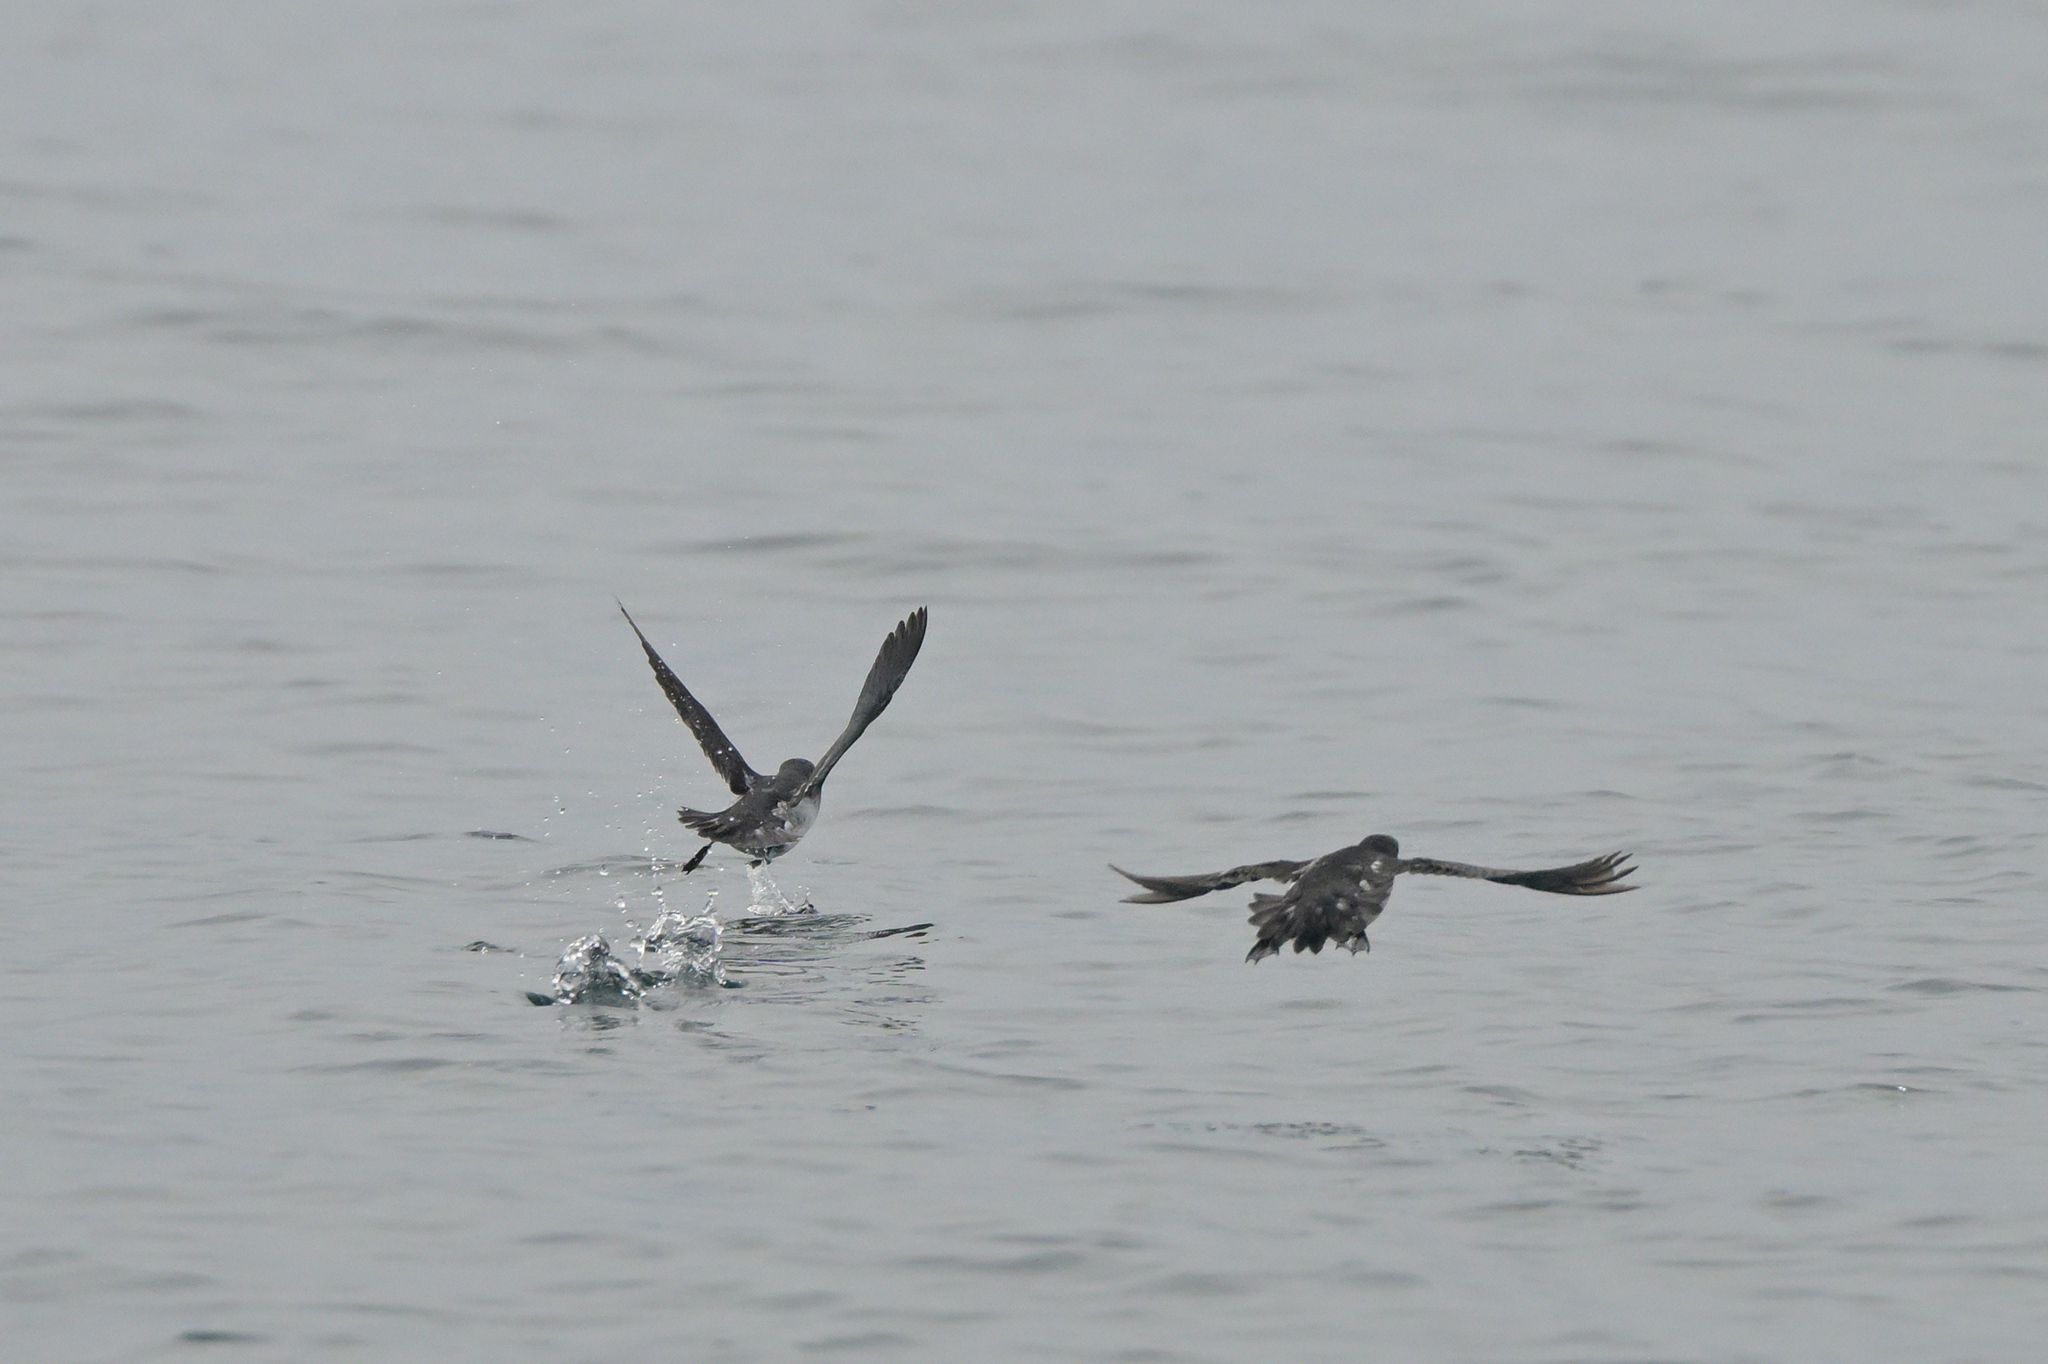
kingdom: Animalia
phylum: Chordata
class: Aves
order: Procellariiformes
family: Pelecanoididae
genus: Pelecanoides
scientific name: Pelecanoides urinatrix
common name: Common diving-petrel
